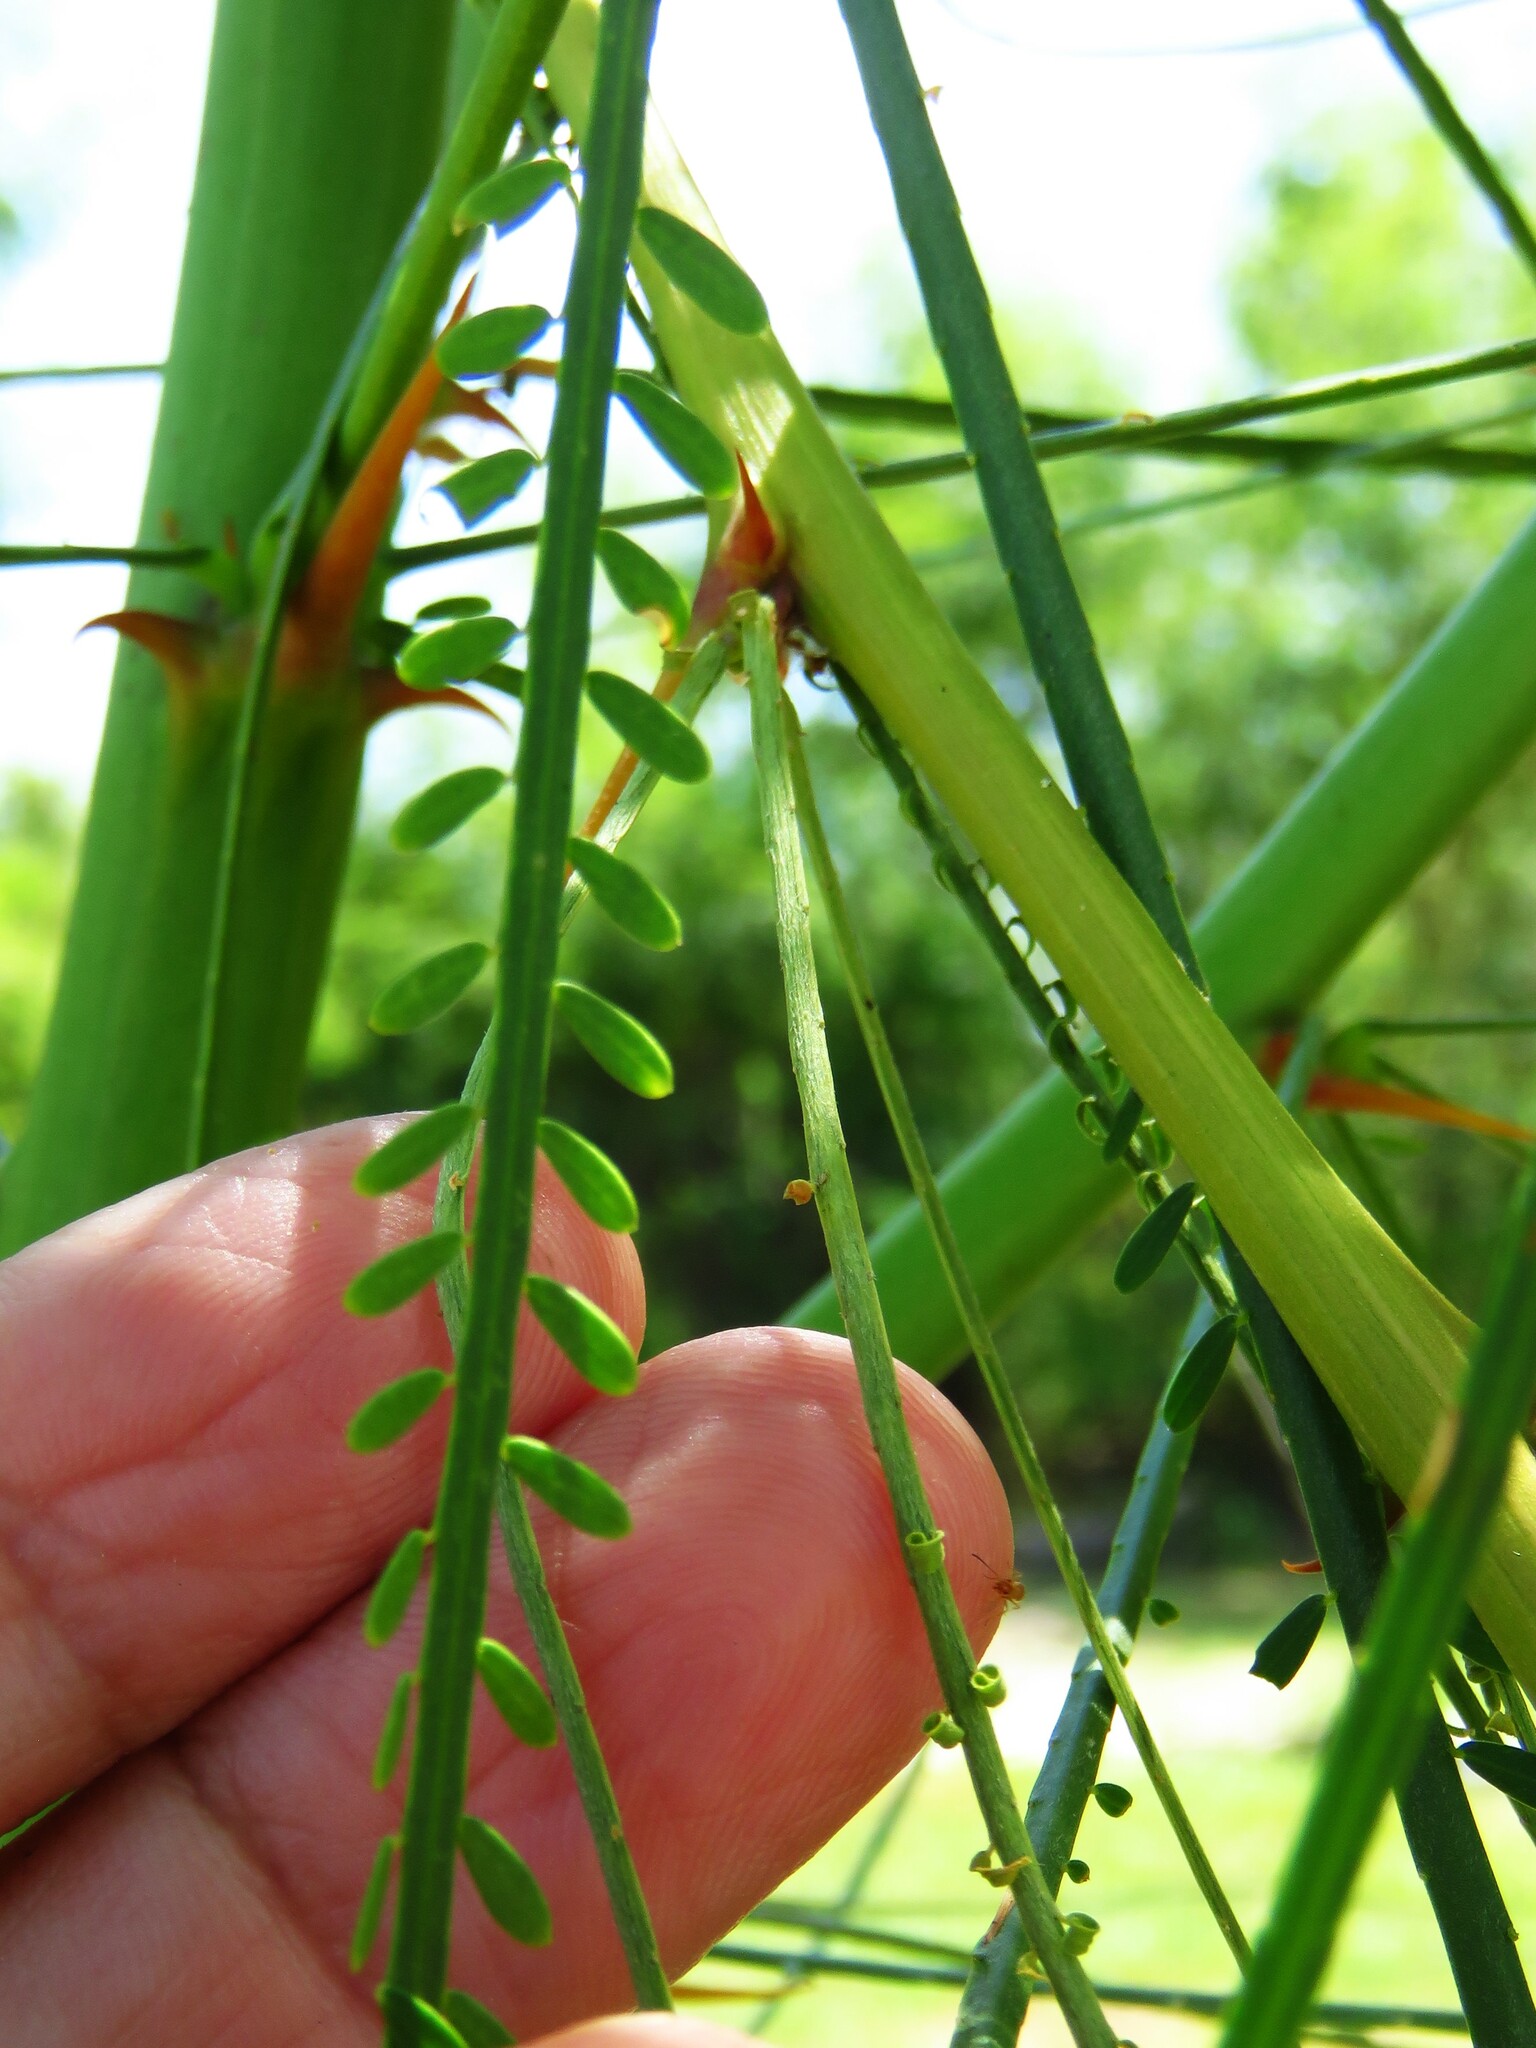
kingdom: Plantae
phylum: Tracheophyta
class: Magnoliopsida
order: Fabales
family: Fabaceae
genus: Parkinsonia
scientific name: Parkinsonia aculeata
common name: Jerusalem thorn
